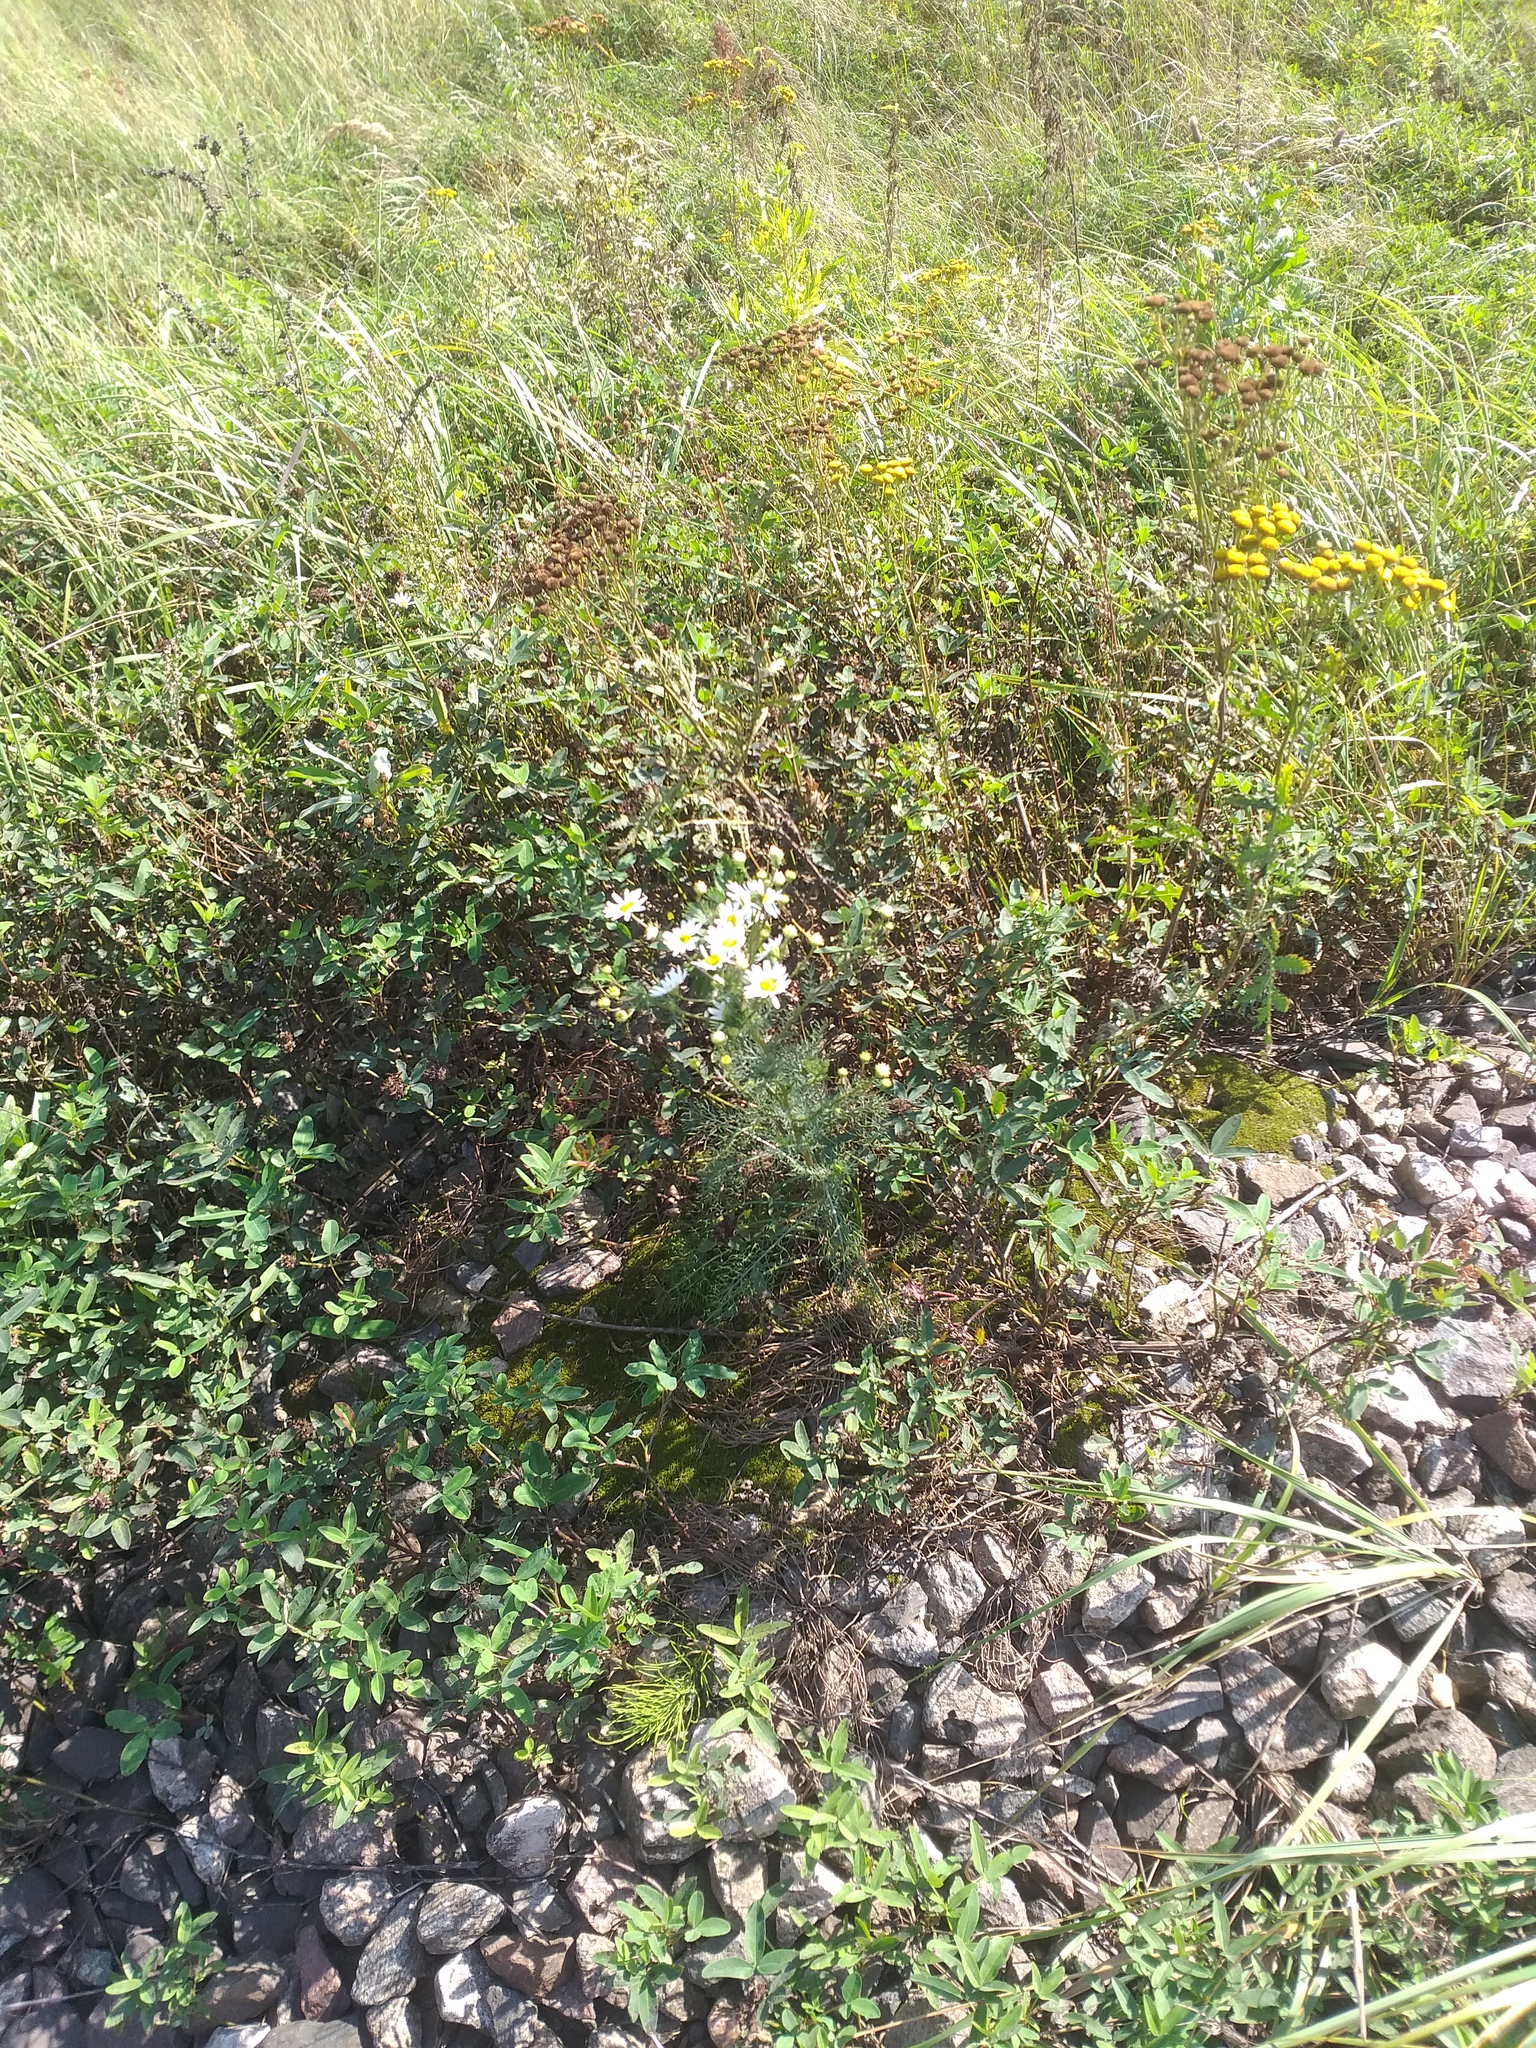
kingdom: Plantae
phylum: Tracheophyta
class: Magnoliopsida
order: Asterales
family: Asteraceae
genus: Tripleurospermum
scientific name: Tripleurospermum inodorum
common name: Scentless mayweed
